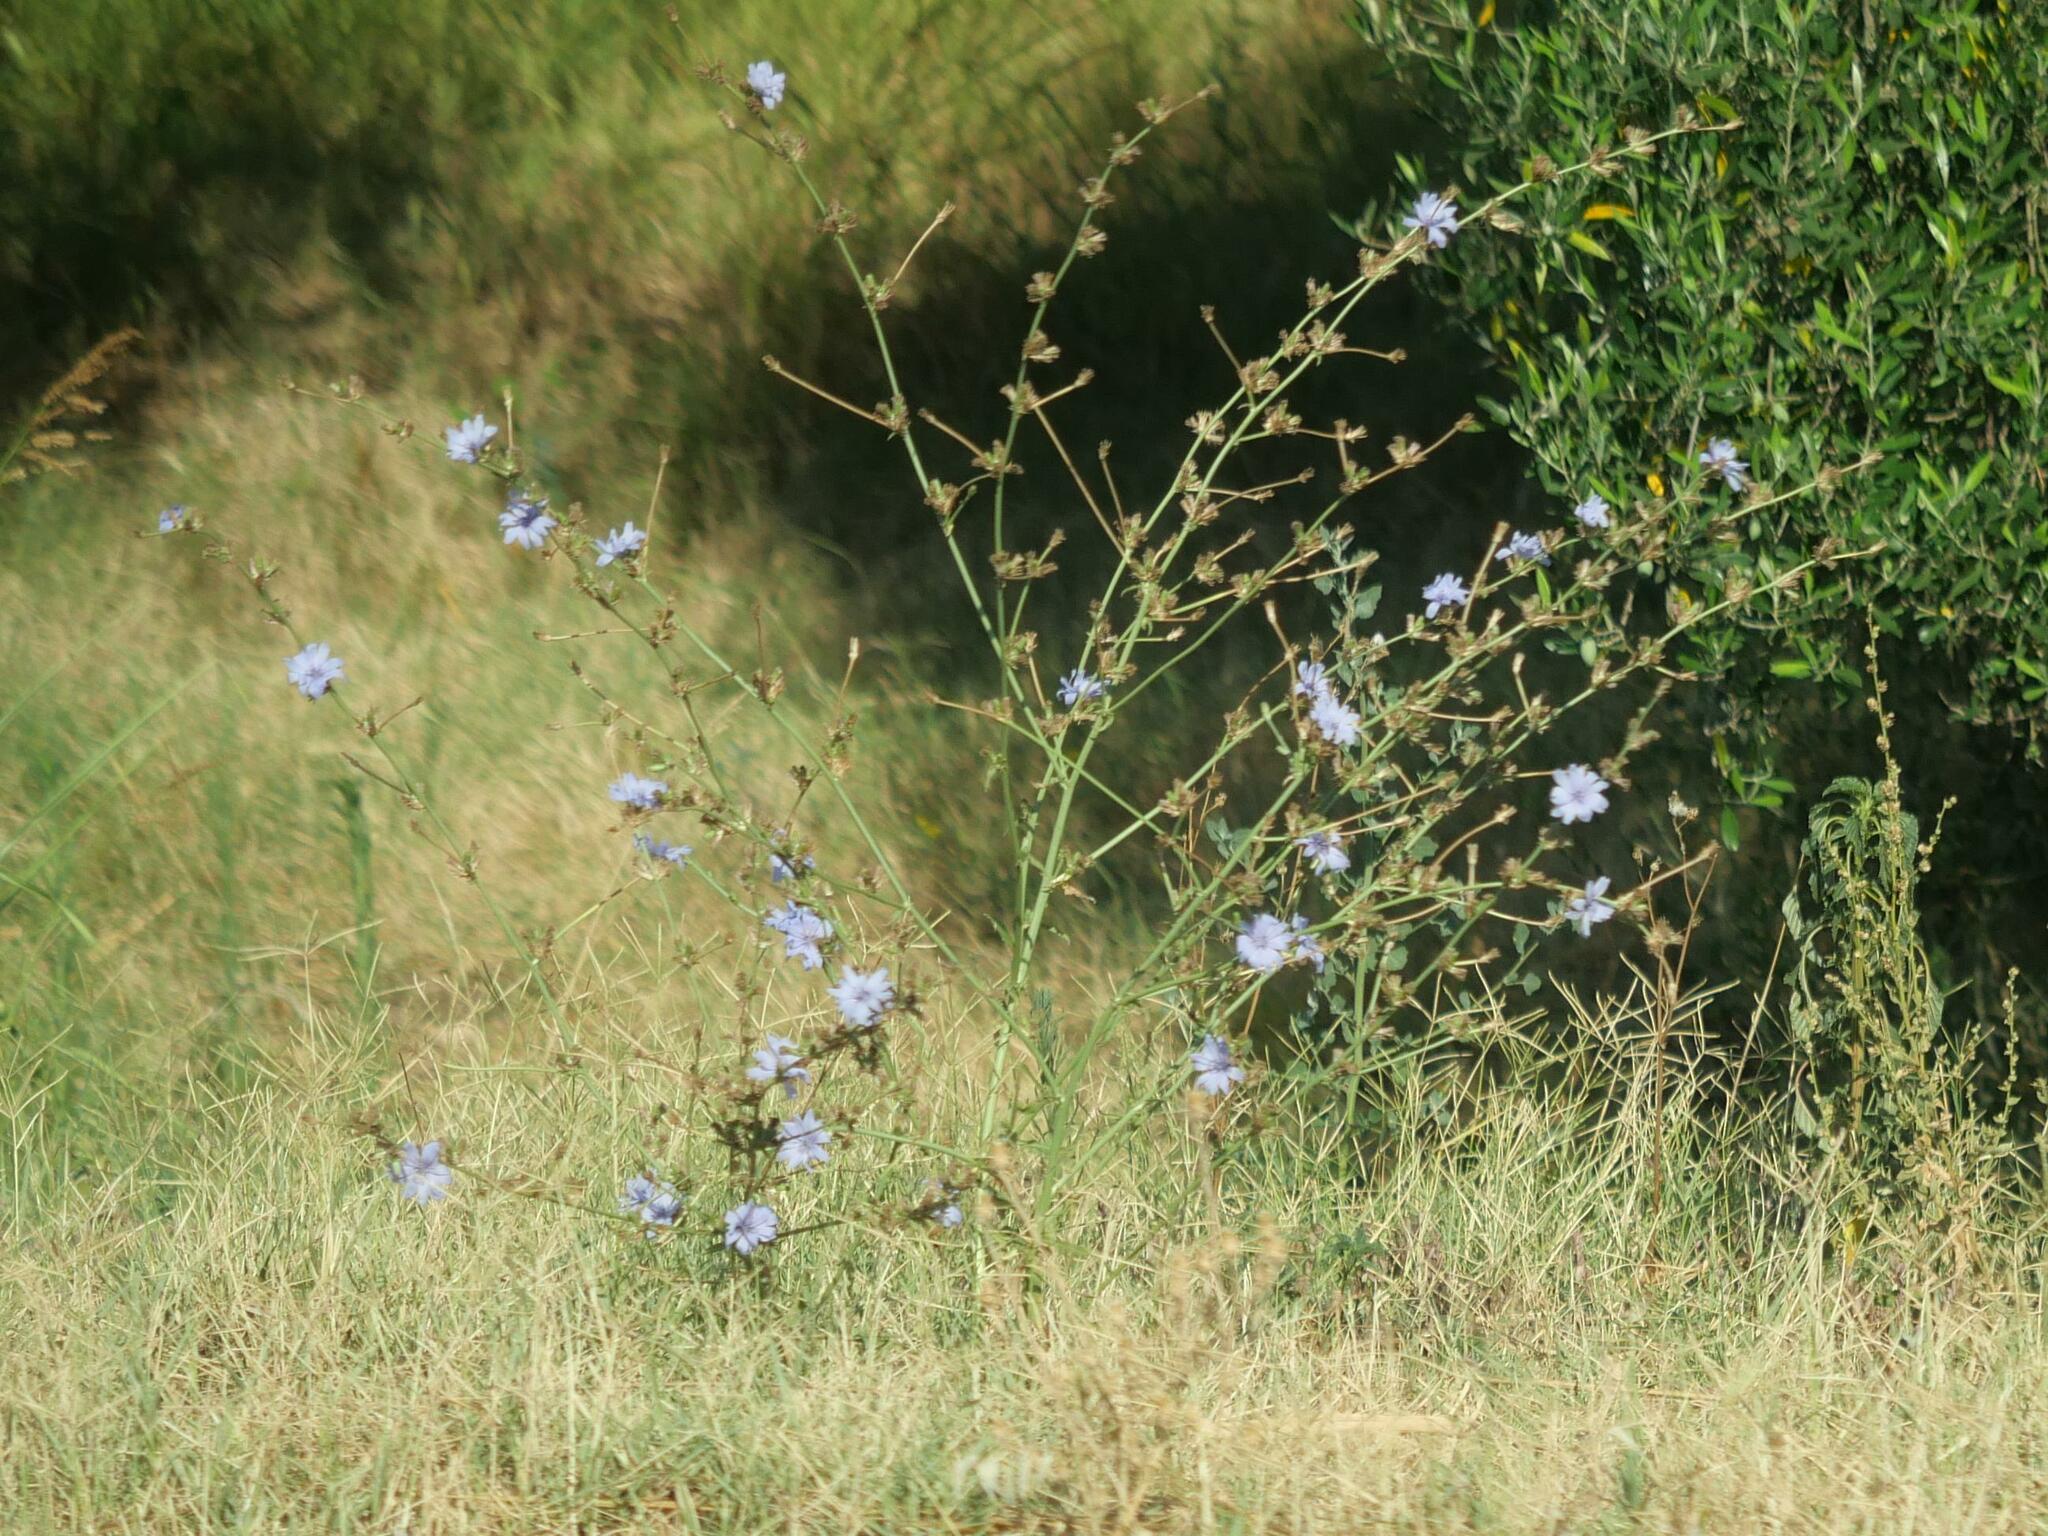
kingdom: Plantae
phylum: Tracheophyta
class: Magnoliopsida
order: Asterales
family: Asteraceae
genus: Cichorium
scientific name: Cichorium intybus
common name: Chicory
